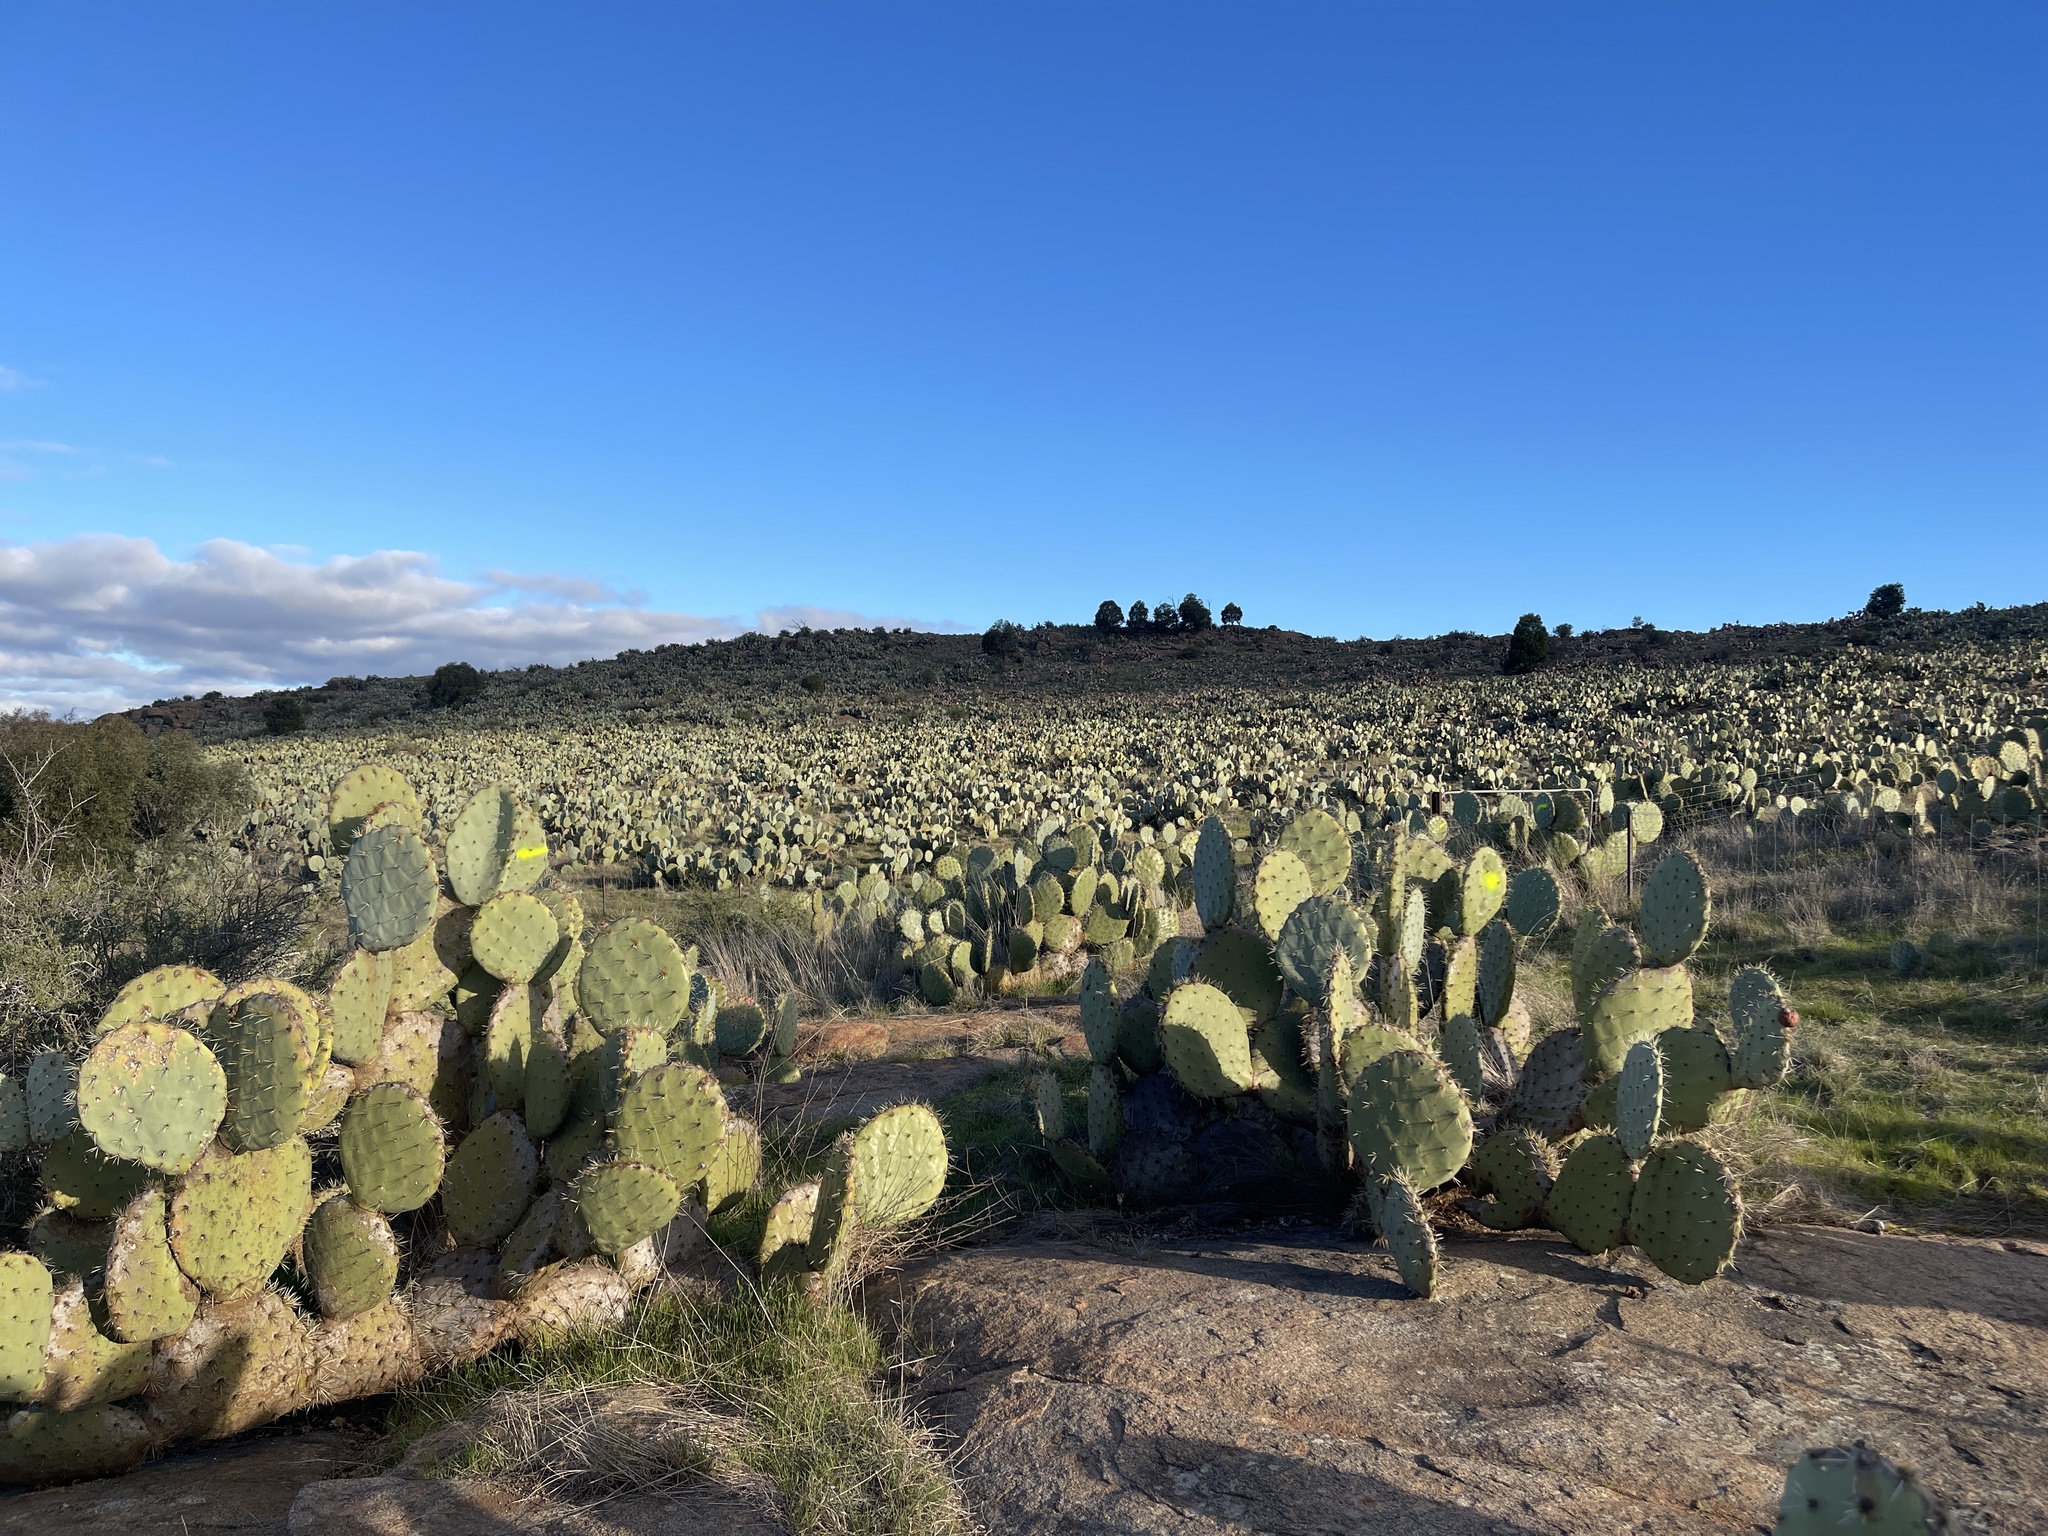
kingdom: Plantae
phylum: Tracheophyta
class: Magnoliopsida
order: Caryophyllales
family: Cactaceae
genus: Opuntia
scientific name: Opuntia robusta
